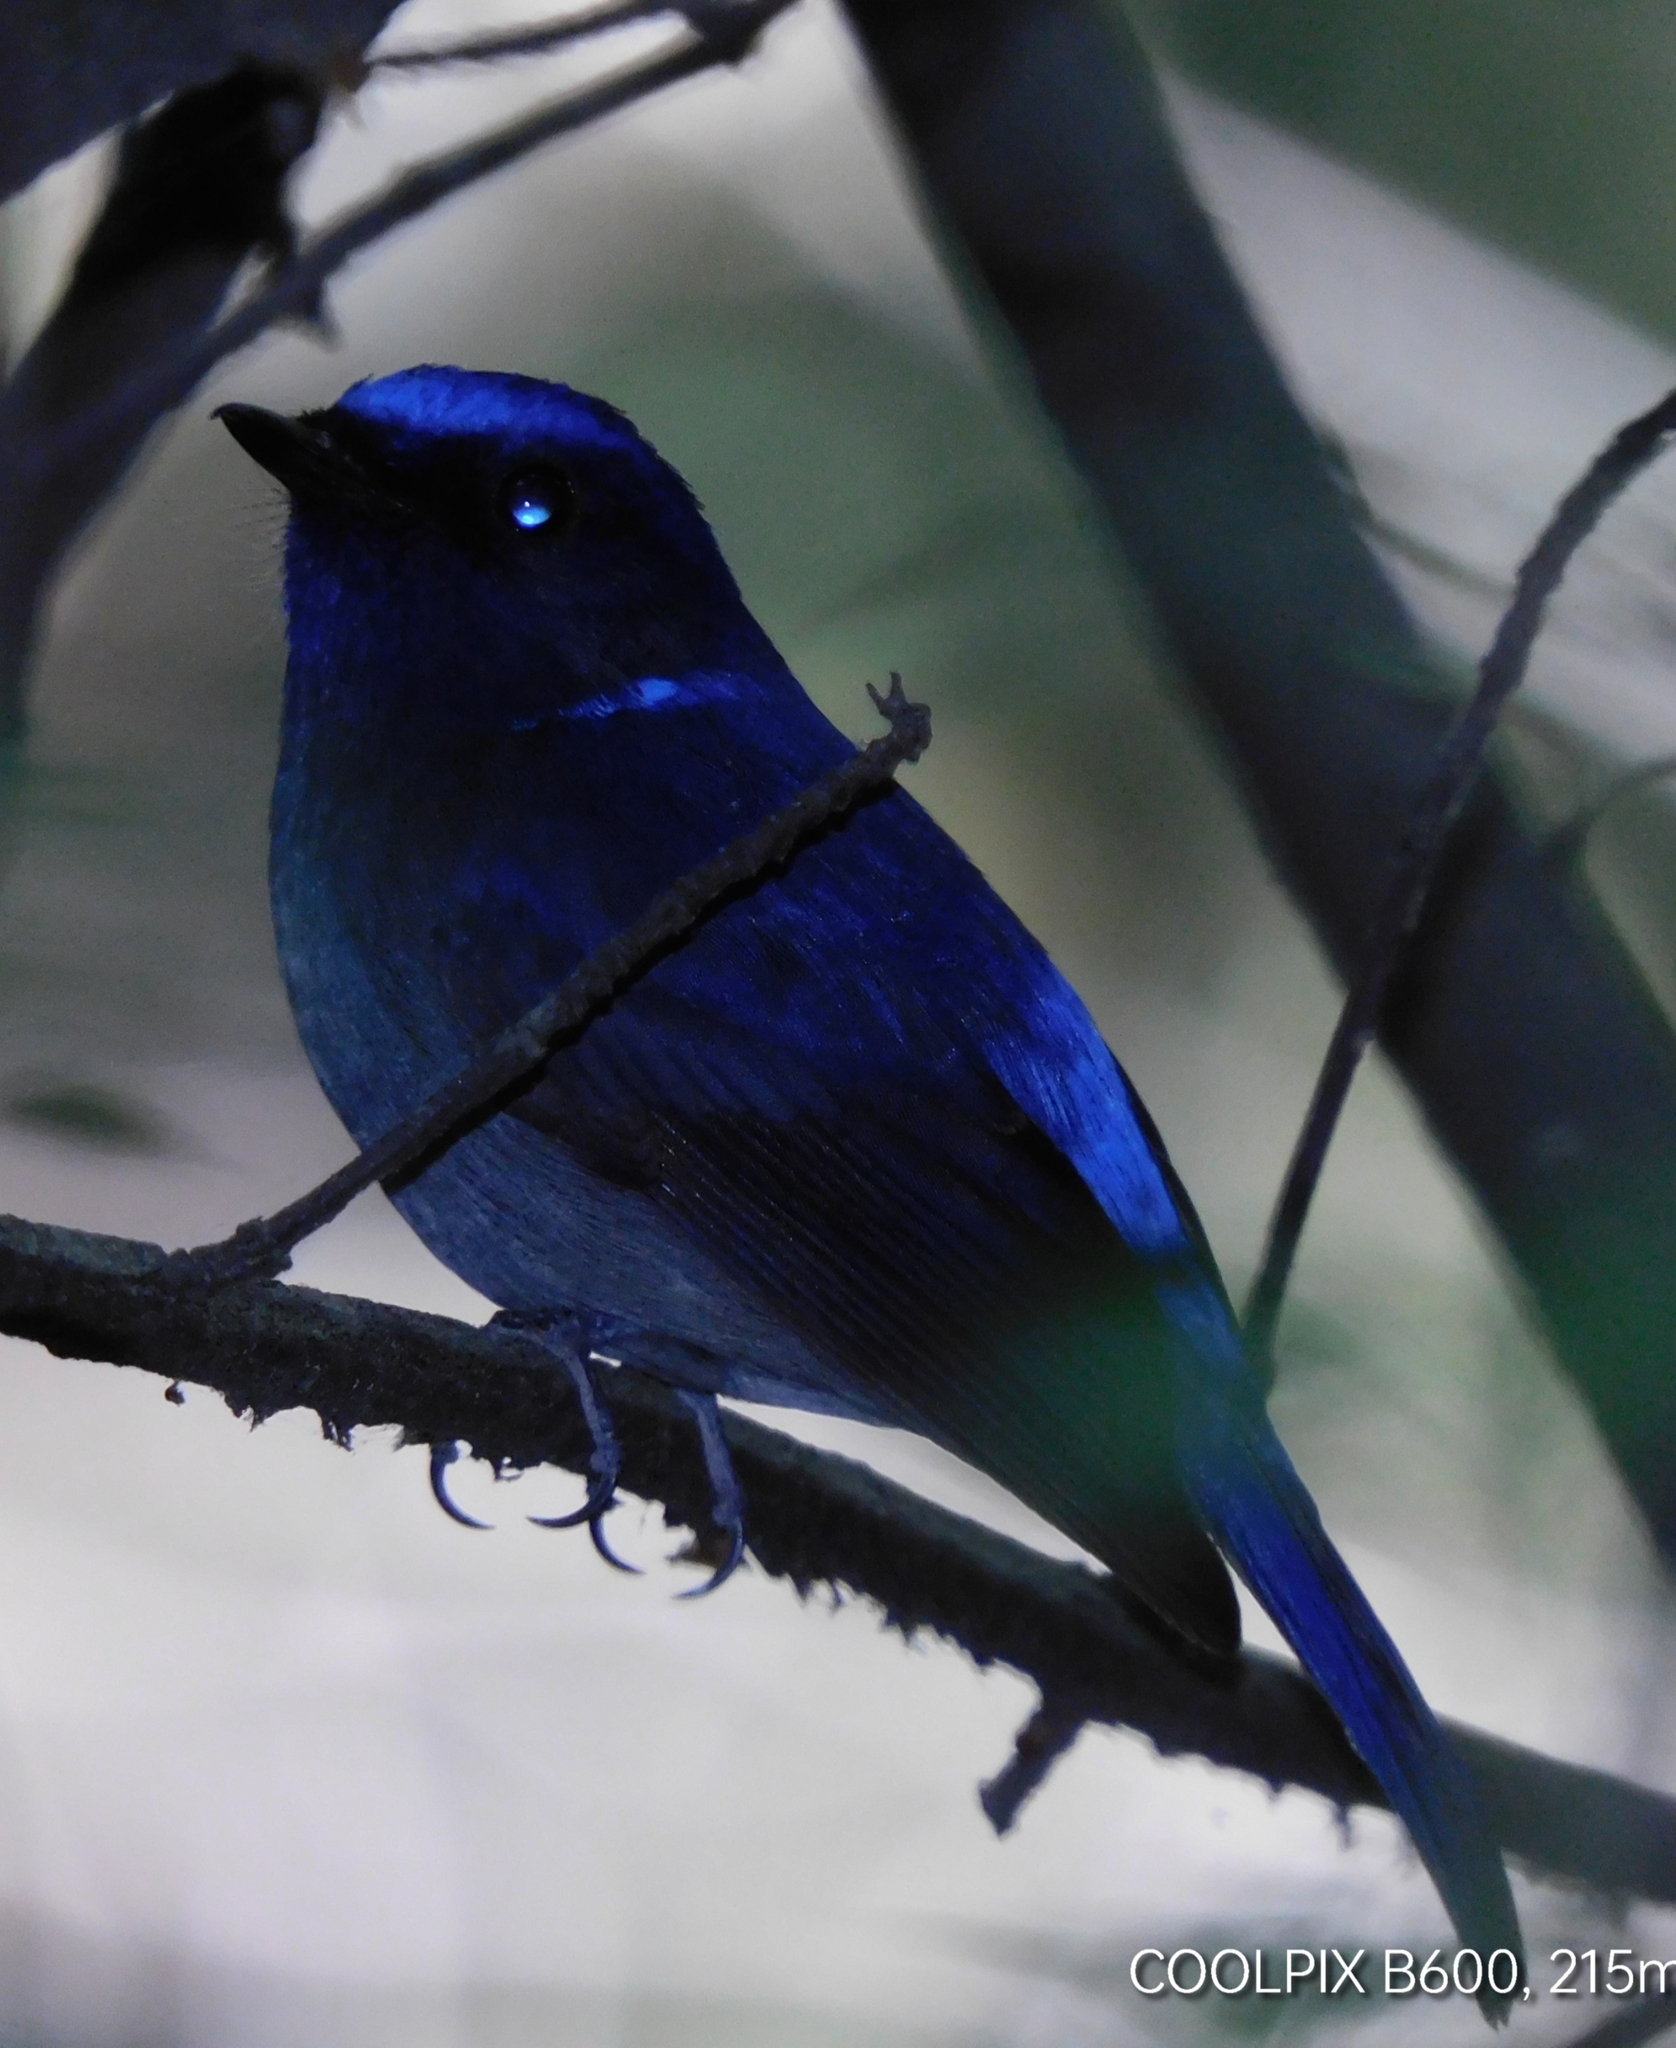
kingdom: Animalia
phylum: Chordata
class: Aves
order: Passeriformes
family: Muscicapidae
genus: Niltava
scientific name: Niltava macgrigoriae
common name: Small niltava
